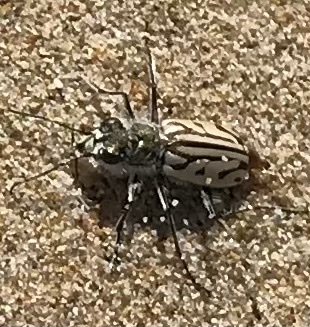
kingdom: Animalia
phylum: Arthropoda
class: Insecta
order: Coleoptera
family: Carabidae
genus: Habrodera
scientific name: Habrodera capensis
